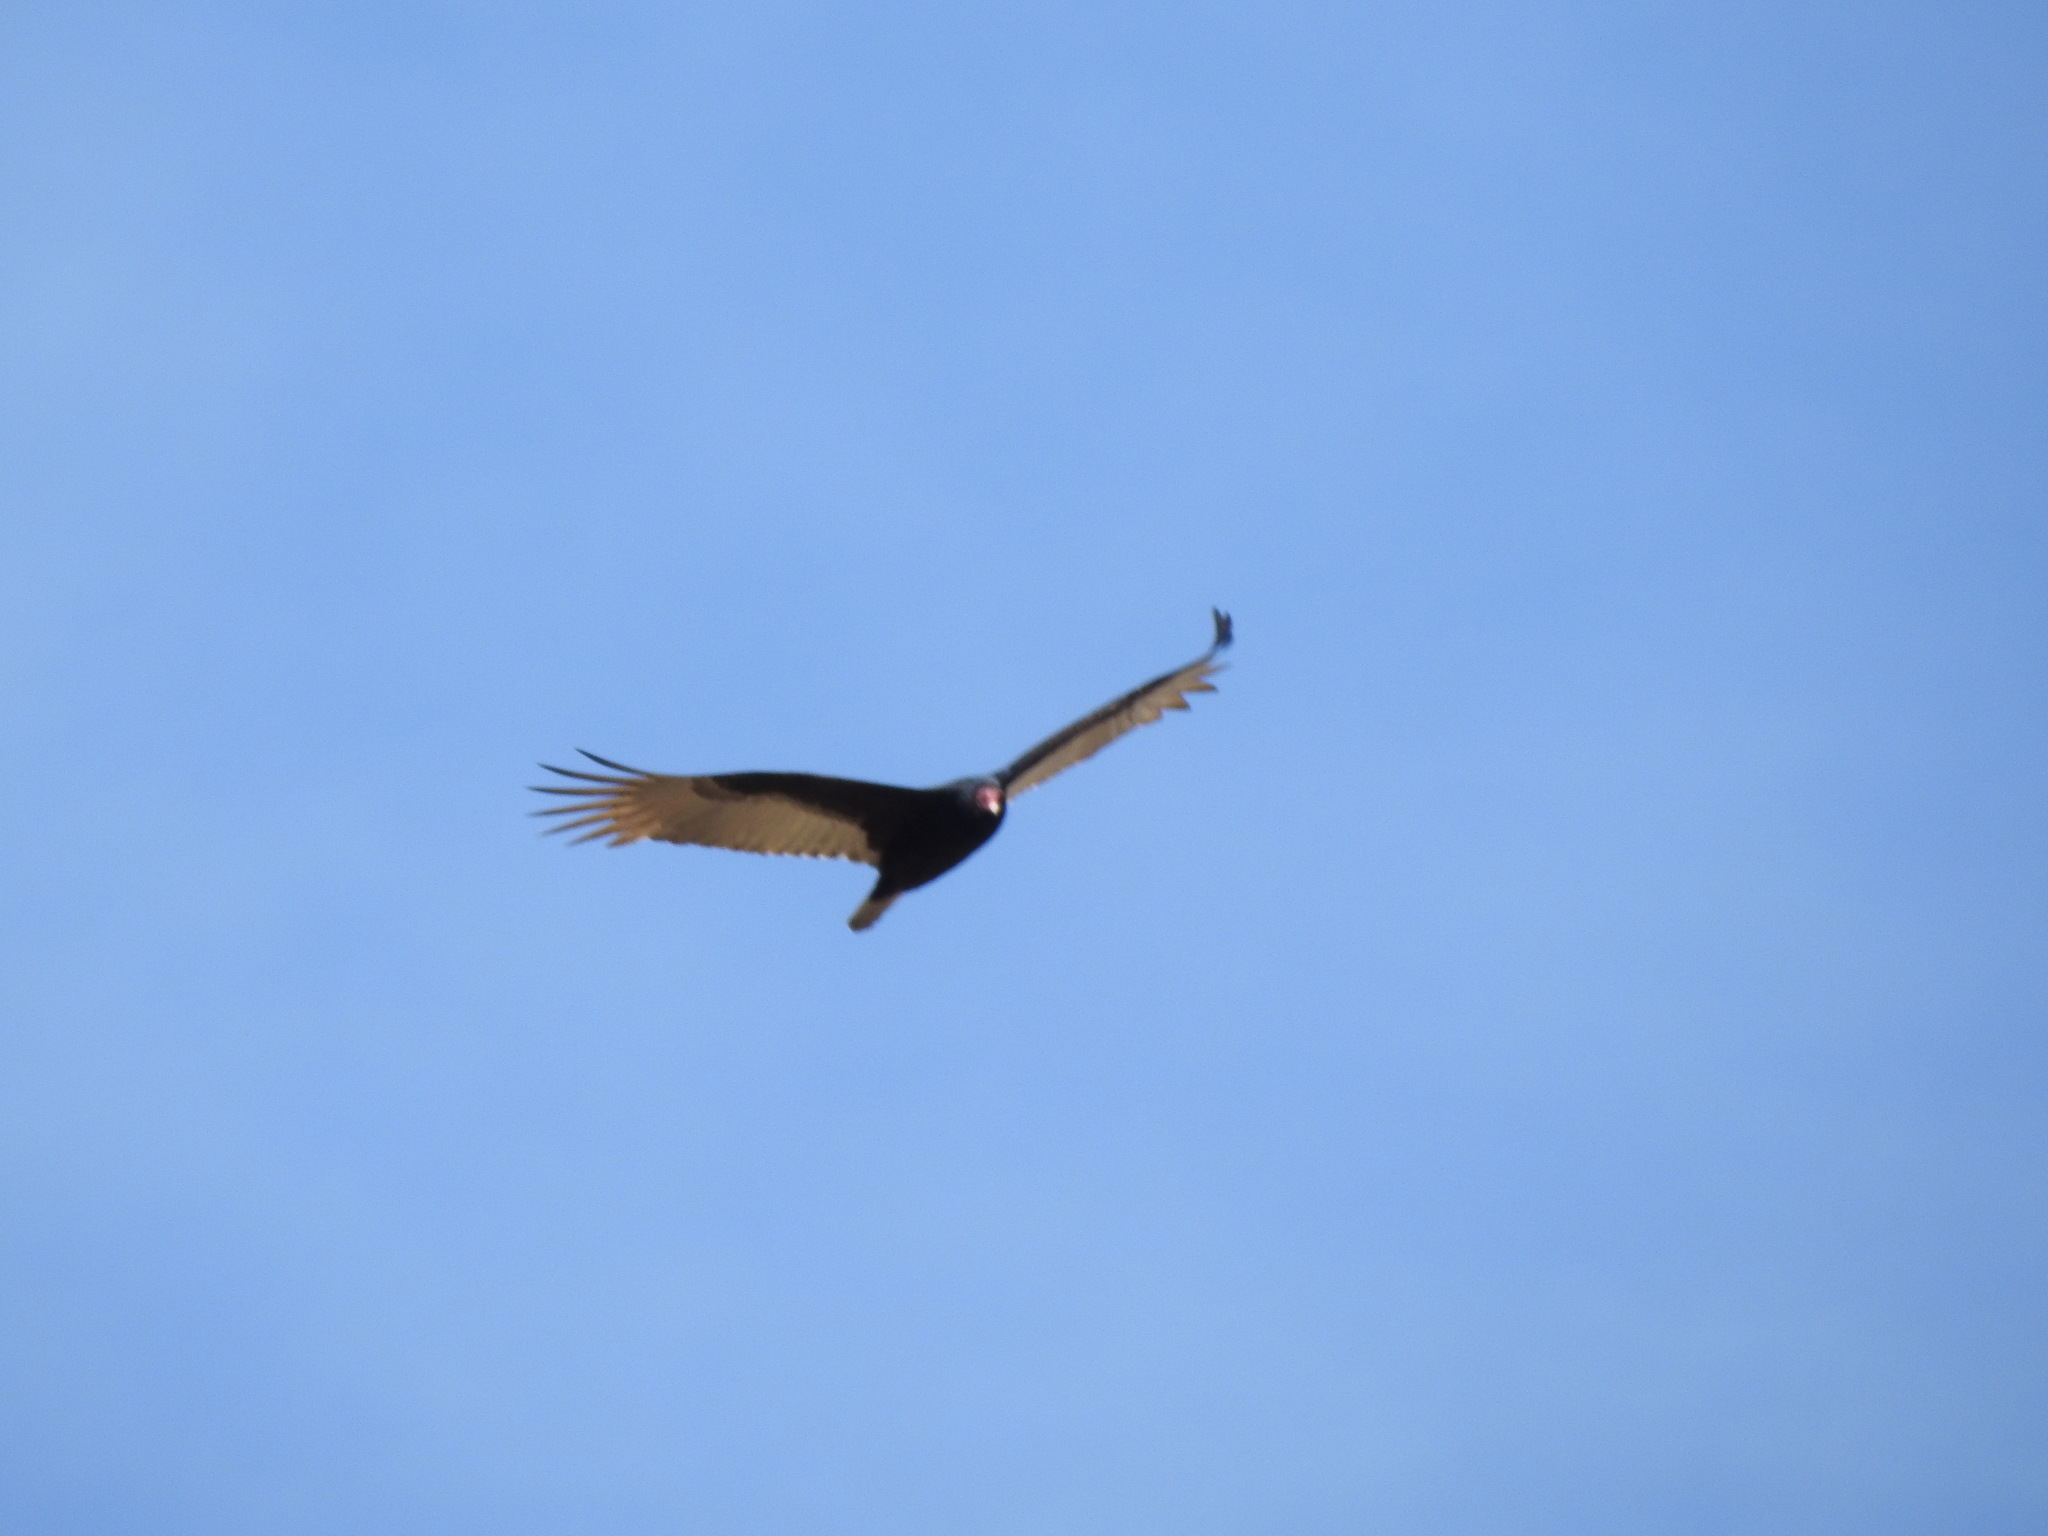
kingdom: Animalia
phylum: Chordata
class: Aves
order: Accipitriformes
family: Cathartidae
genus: Cathartes
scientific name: Cathartes aura
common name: Turkey vulture
